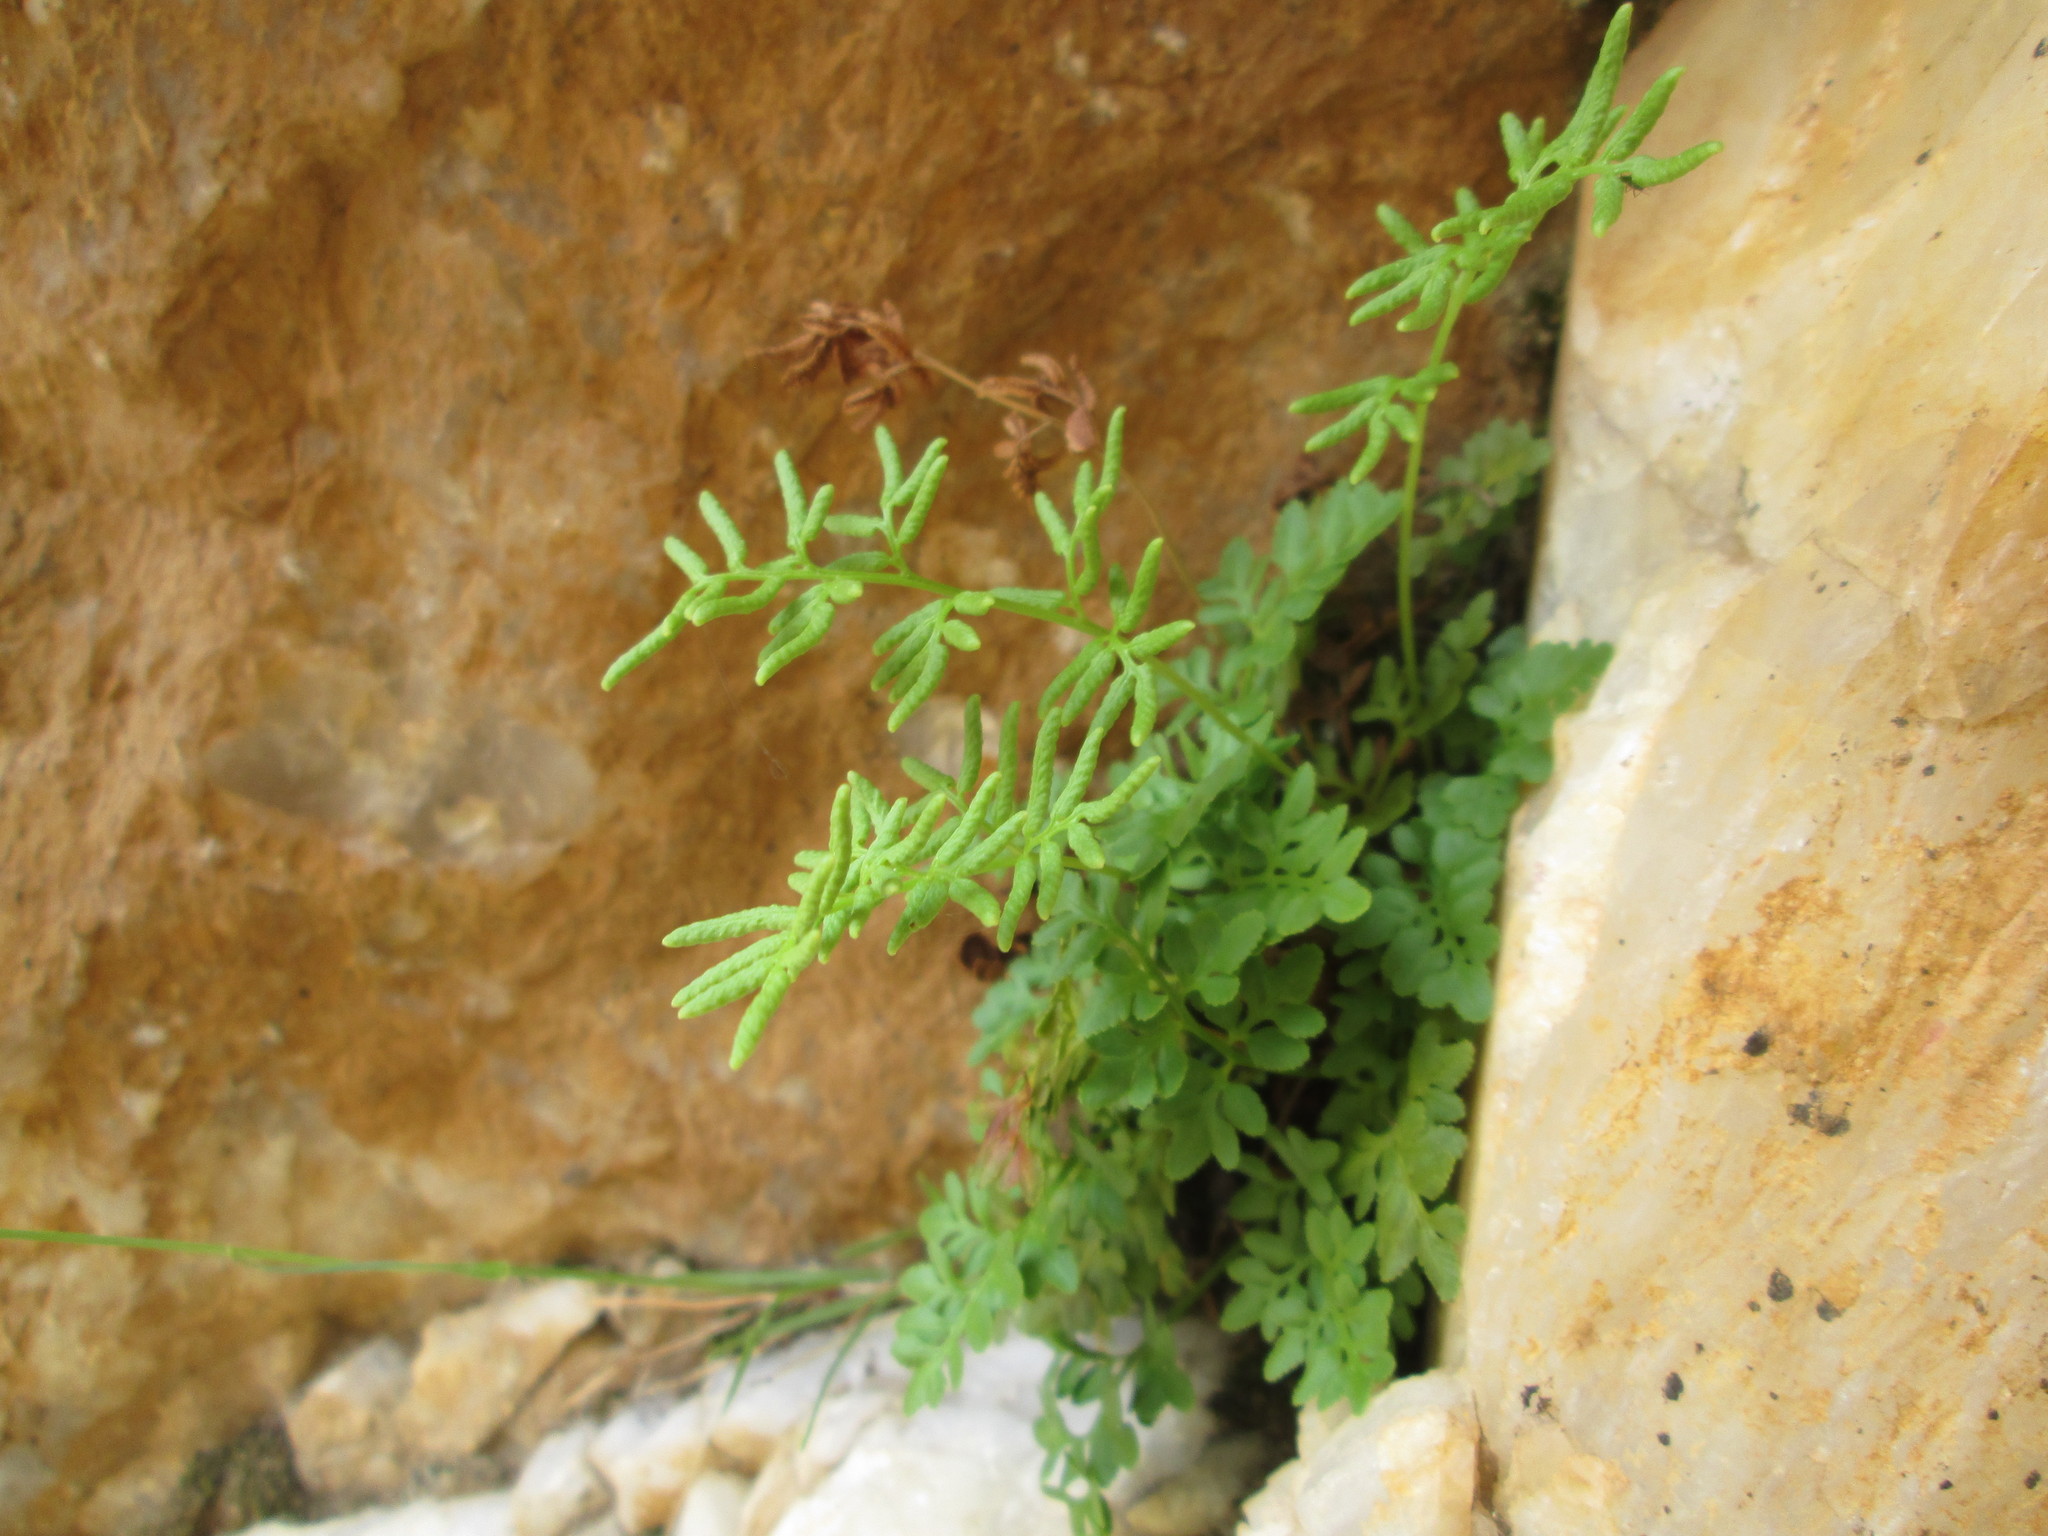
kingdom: Plantae
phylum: Tracheophyta
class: Polypodiopsida
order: Polypodiales
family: Pteridaceae
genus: Cryptogramma
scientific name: Cryptogramma acrostichoides
